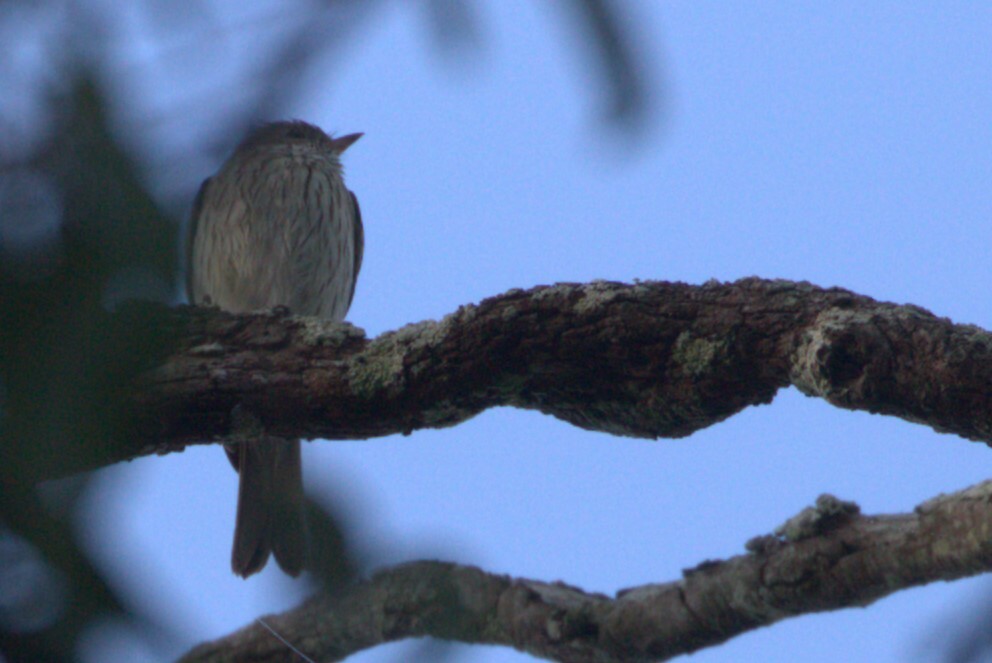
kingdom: Animalia
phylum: Chordata
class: Aves
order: Passeriformes
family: Pachycephalidae
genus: Pachycephala
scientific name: Pachycephala rufiventris
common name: Rufous whistler
